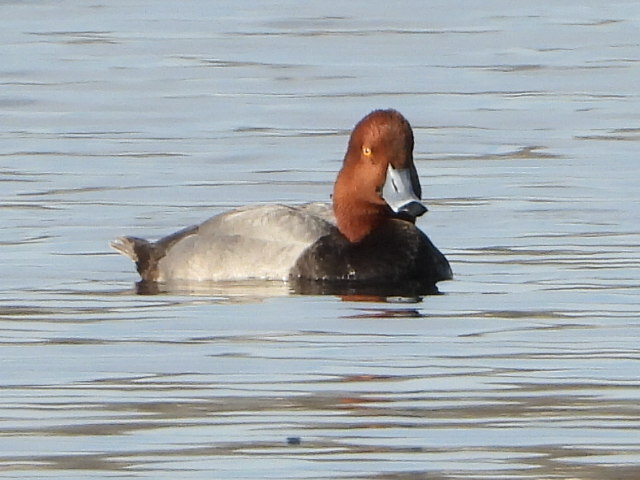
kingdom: Animalia
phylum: Chordata
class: Aves
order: Anseriformes
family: Anatidae
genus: Aythya
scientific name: Aythya americana
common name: Redhead
